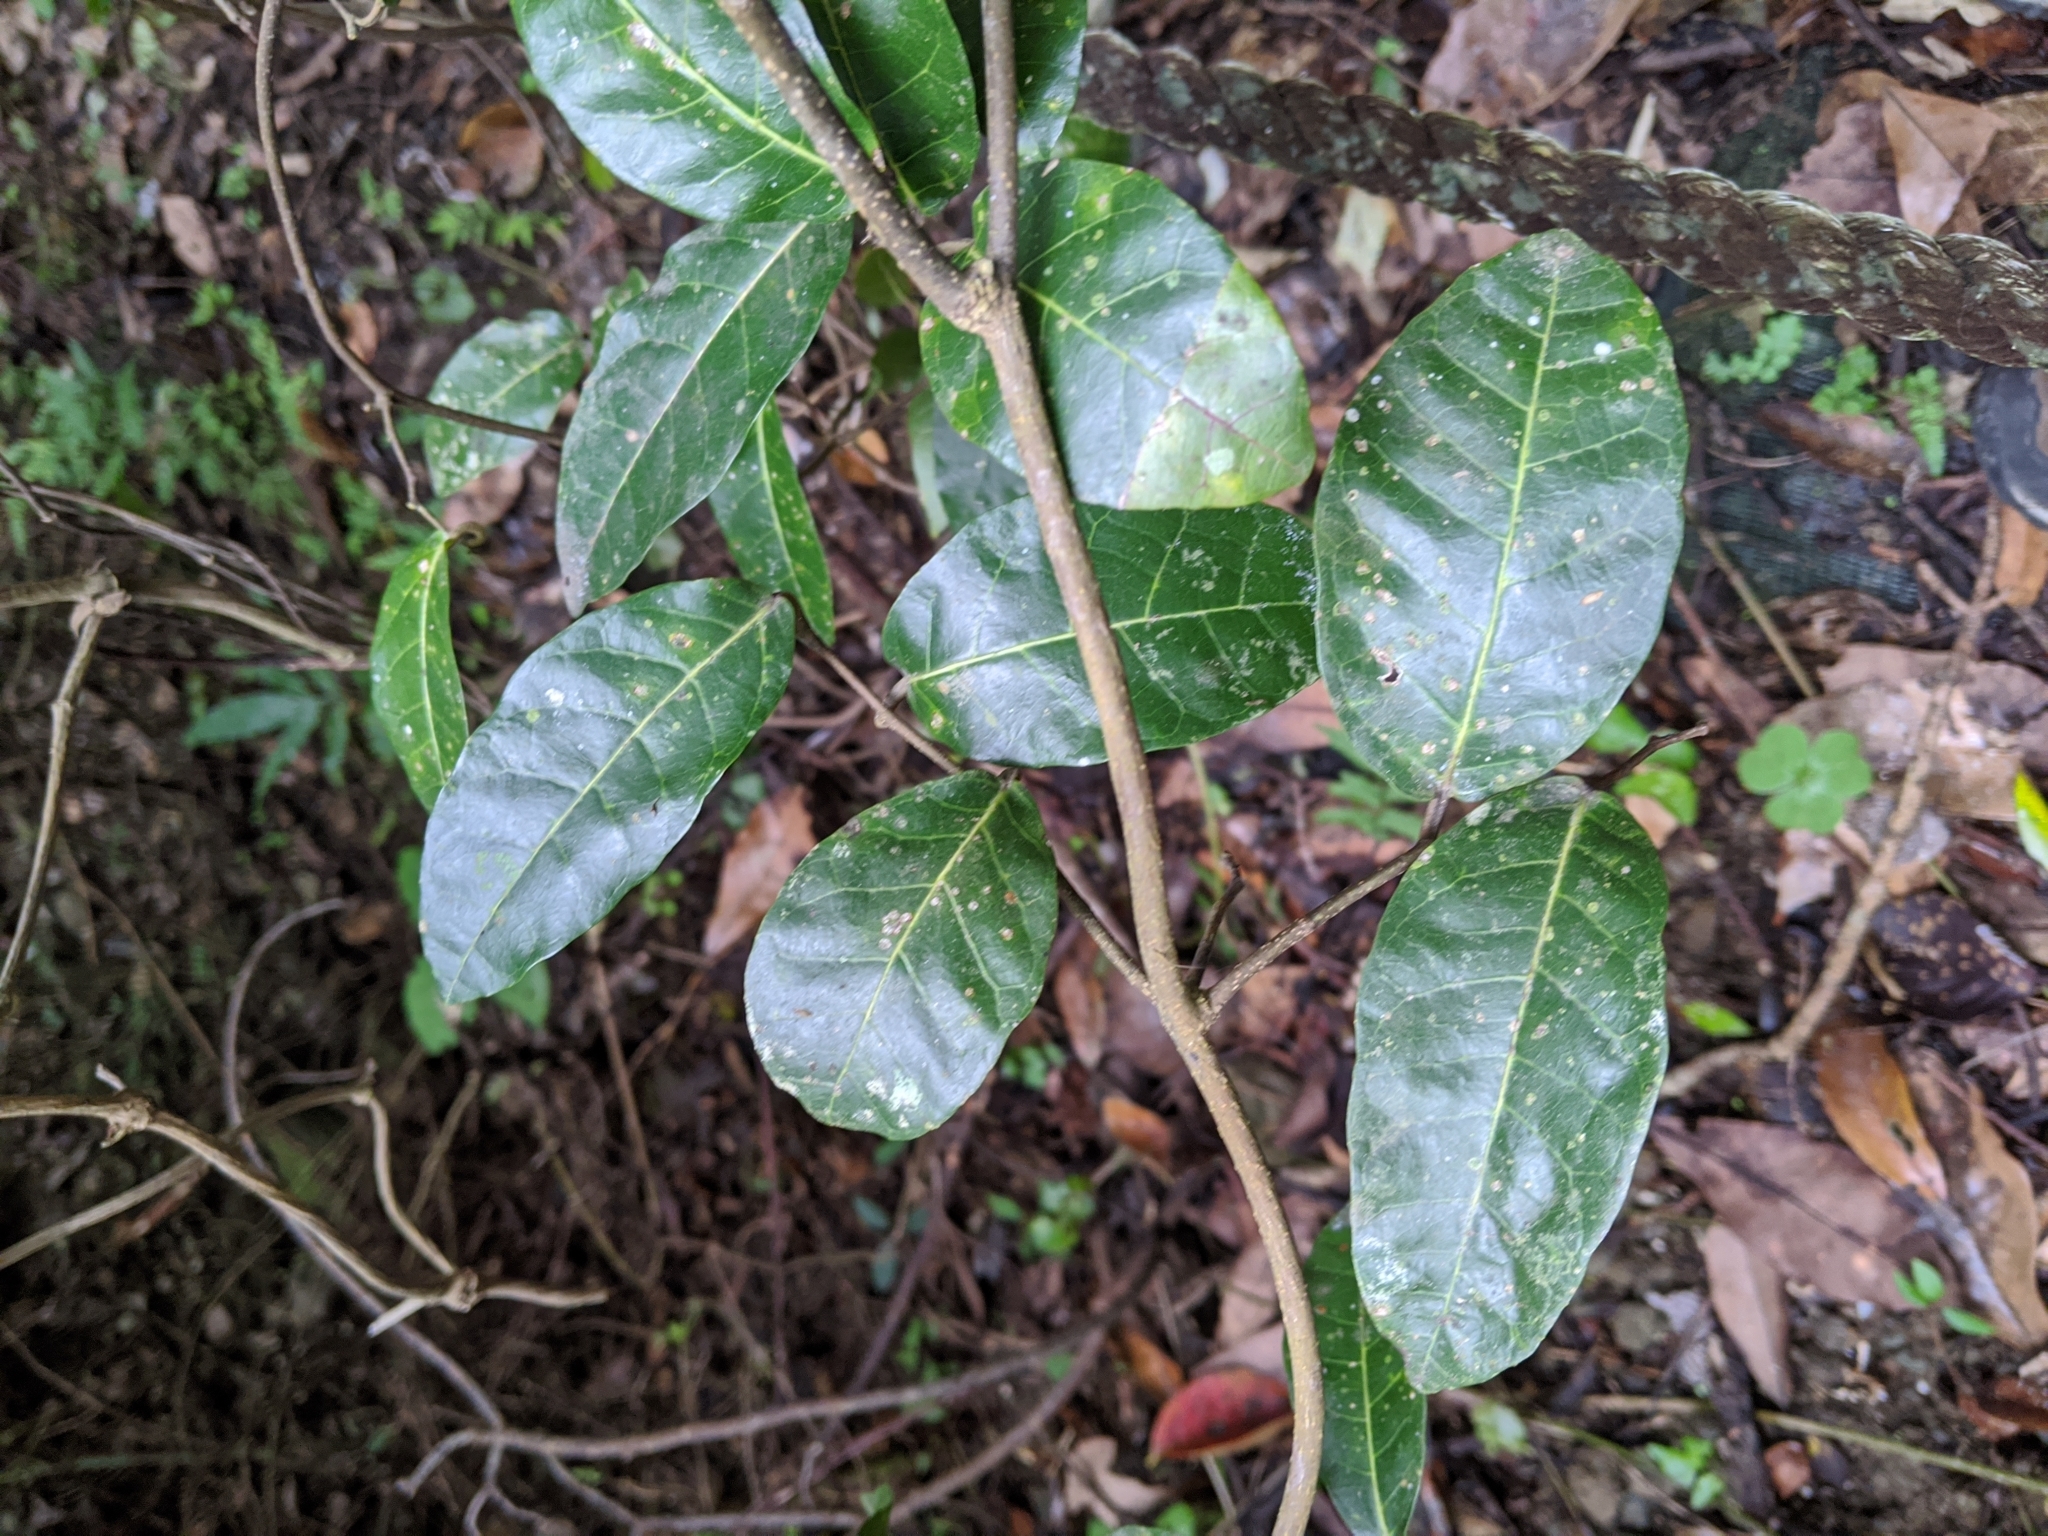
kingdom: Plantae
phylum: Tracheophyta
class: Magnoliopsida
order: Rosales
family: Moraceae
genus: Malaisia
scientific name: Malaisia scandens
